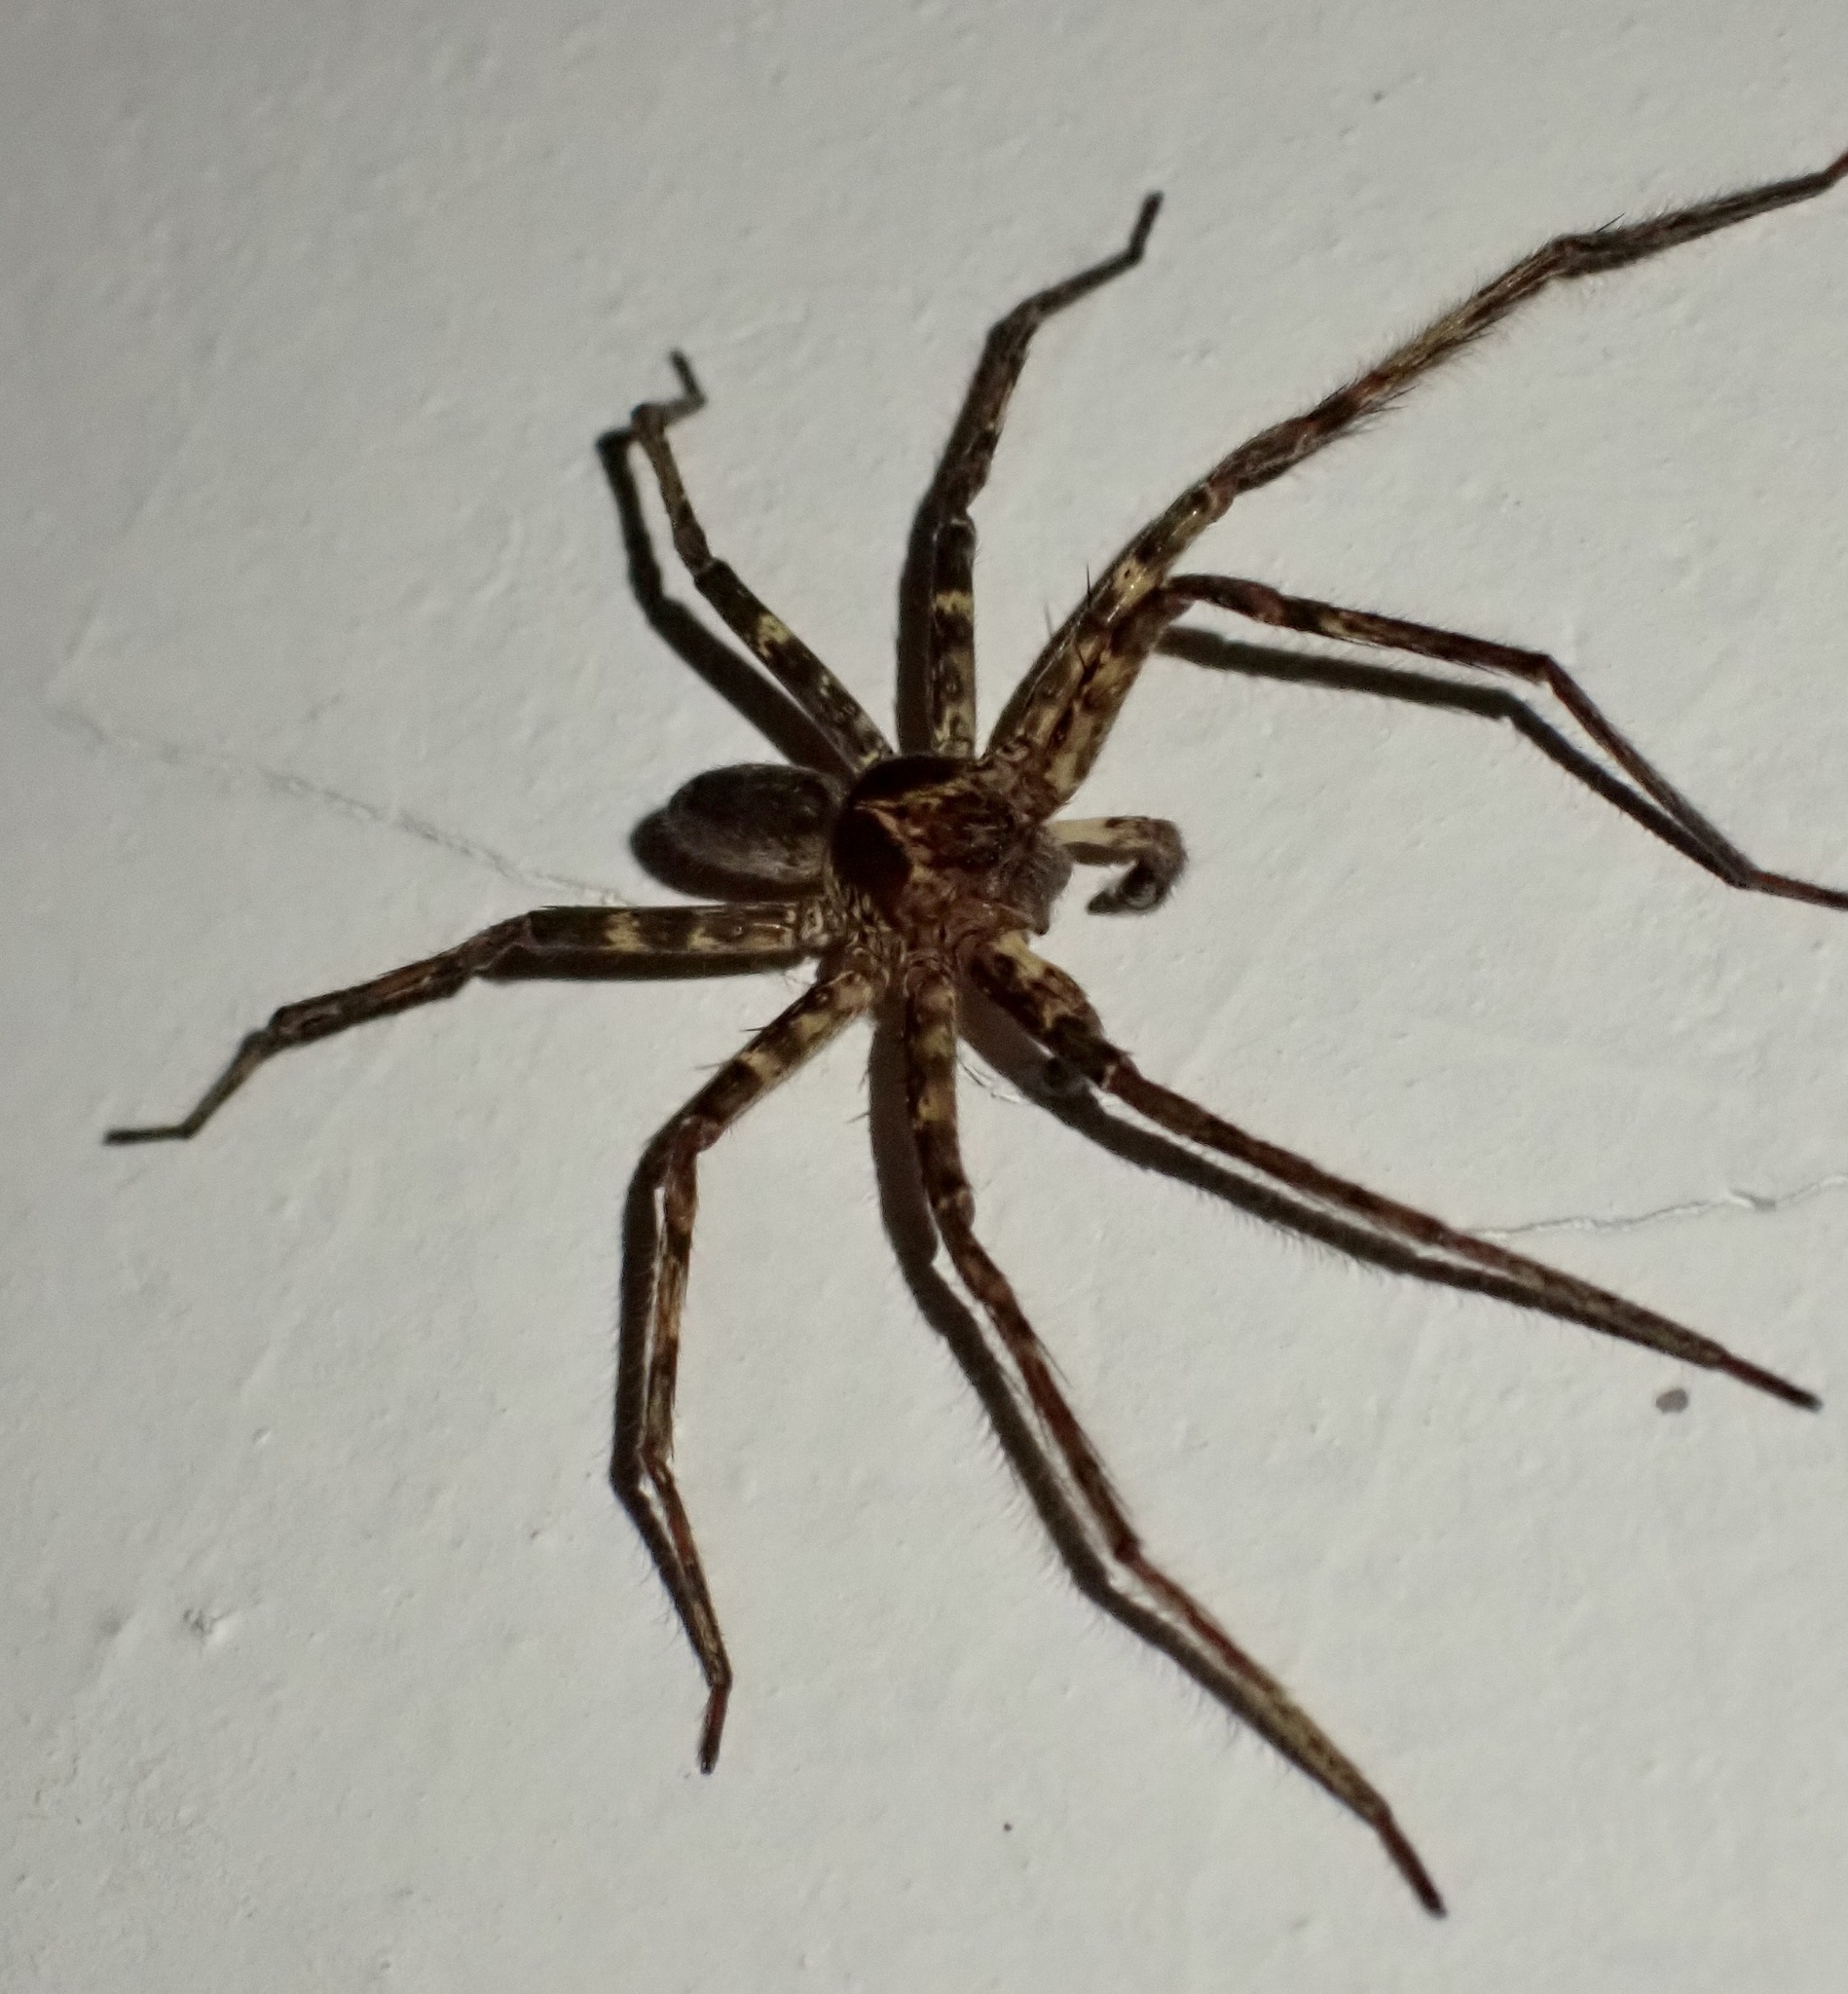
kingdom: Animalia
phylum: Arthropoda
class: Arachnida
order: Araneae
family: Sparassidae
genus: Heteropoda
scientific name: Heteropoda venatoria
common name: Huntsman spider
